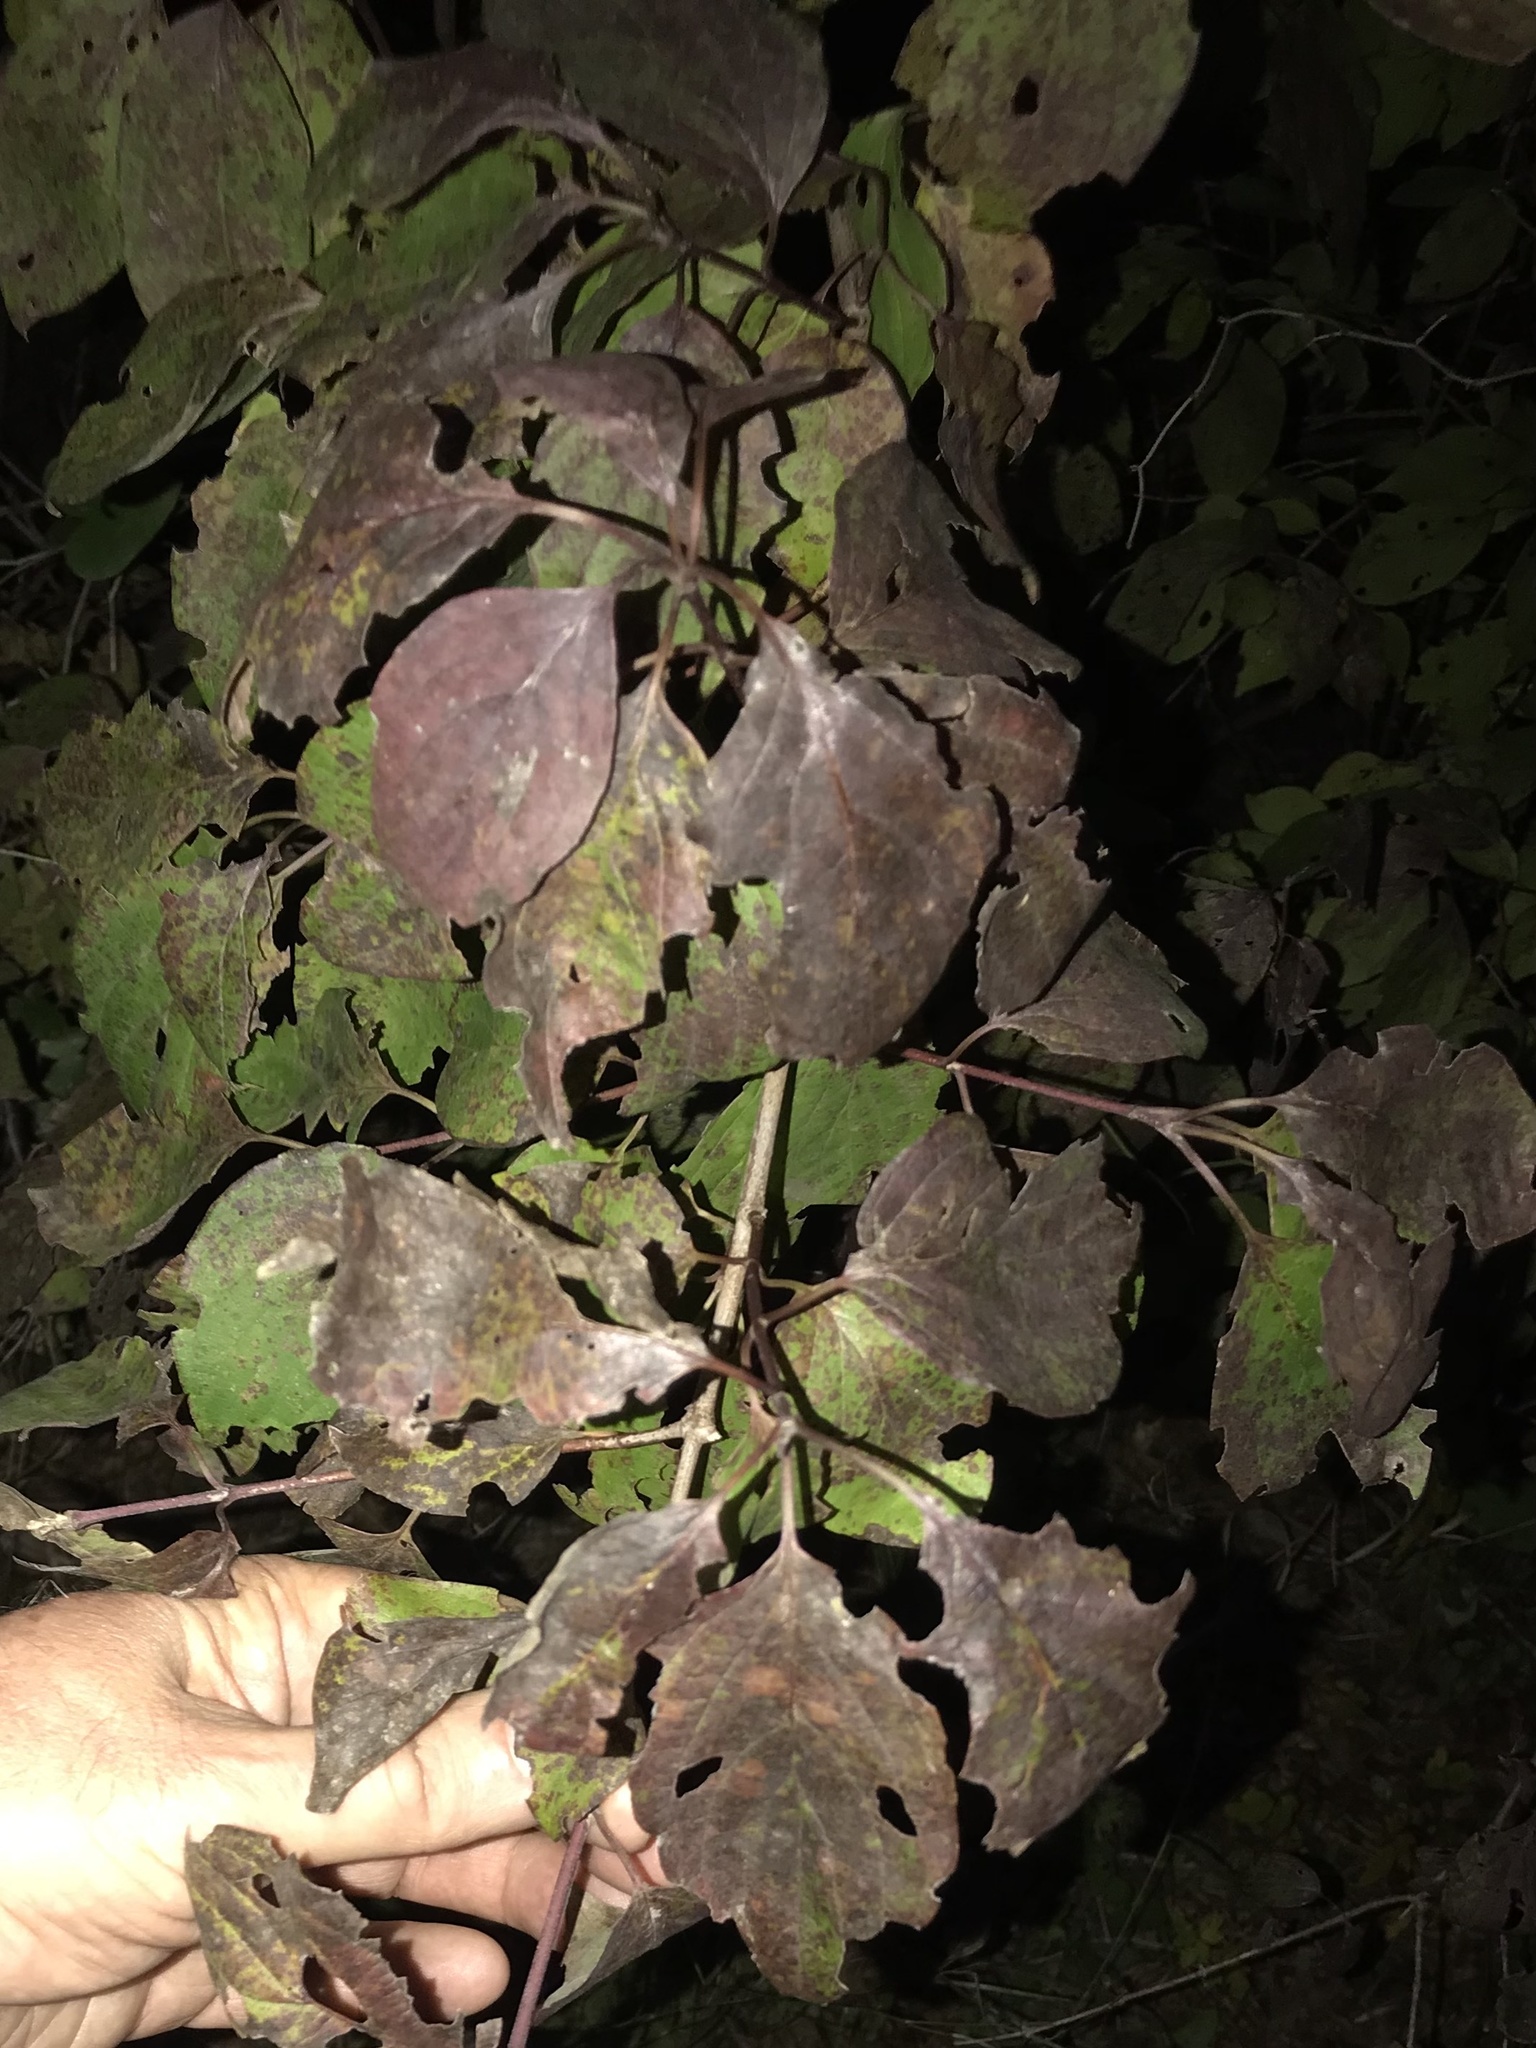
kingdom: Plantae
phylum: Tracheophyta
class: Magnoliopsida
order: Cornales
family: Cornaceae
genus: Cornus
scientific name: Cornus drummondii
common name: Rough-leaf dogwood
